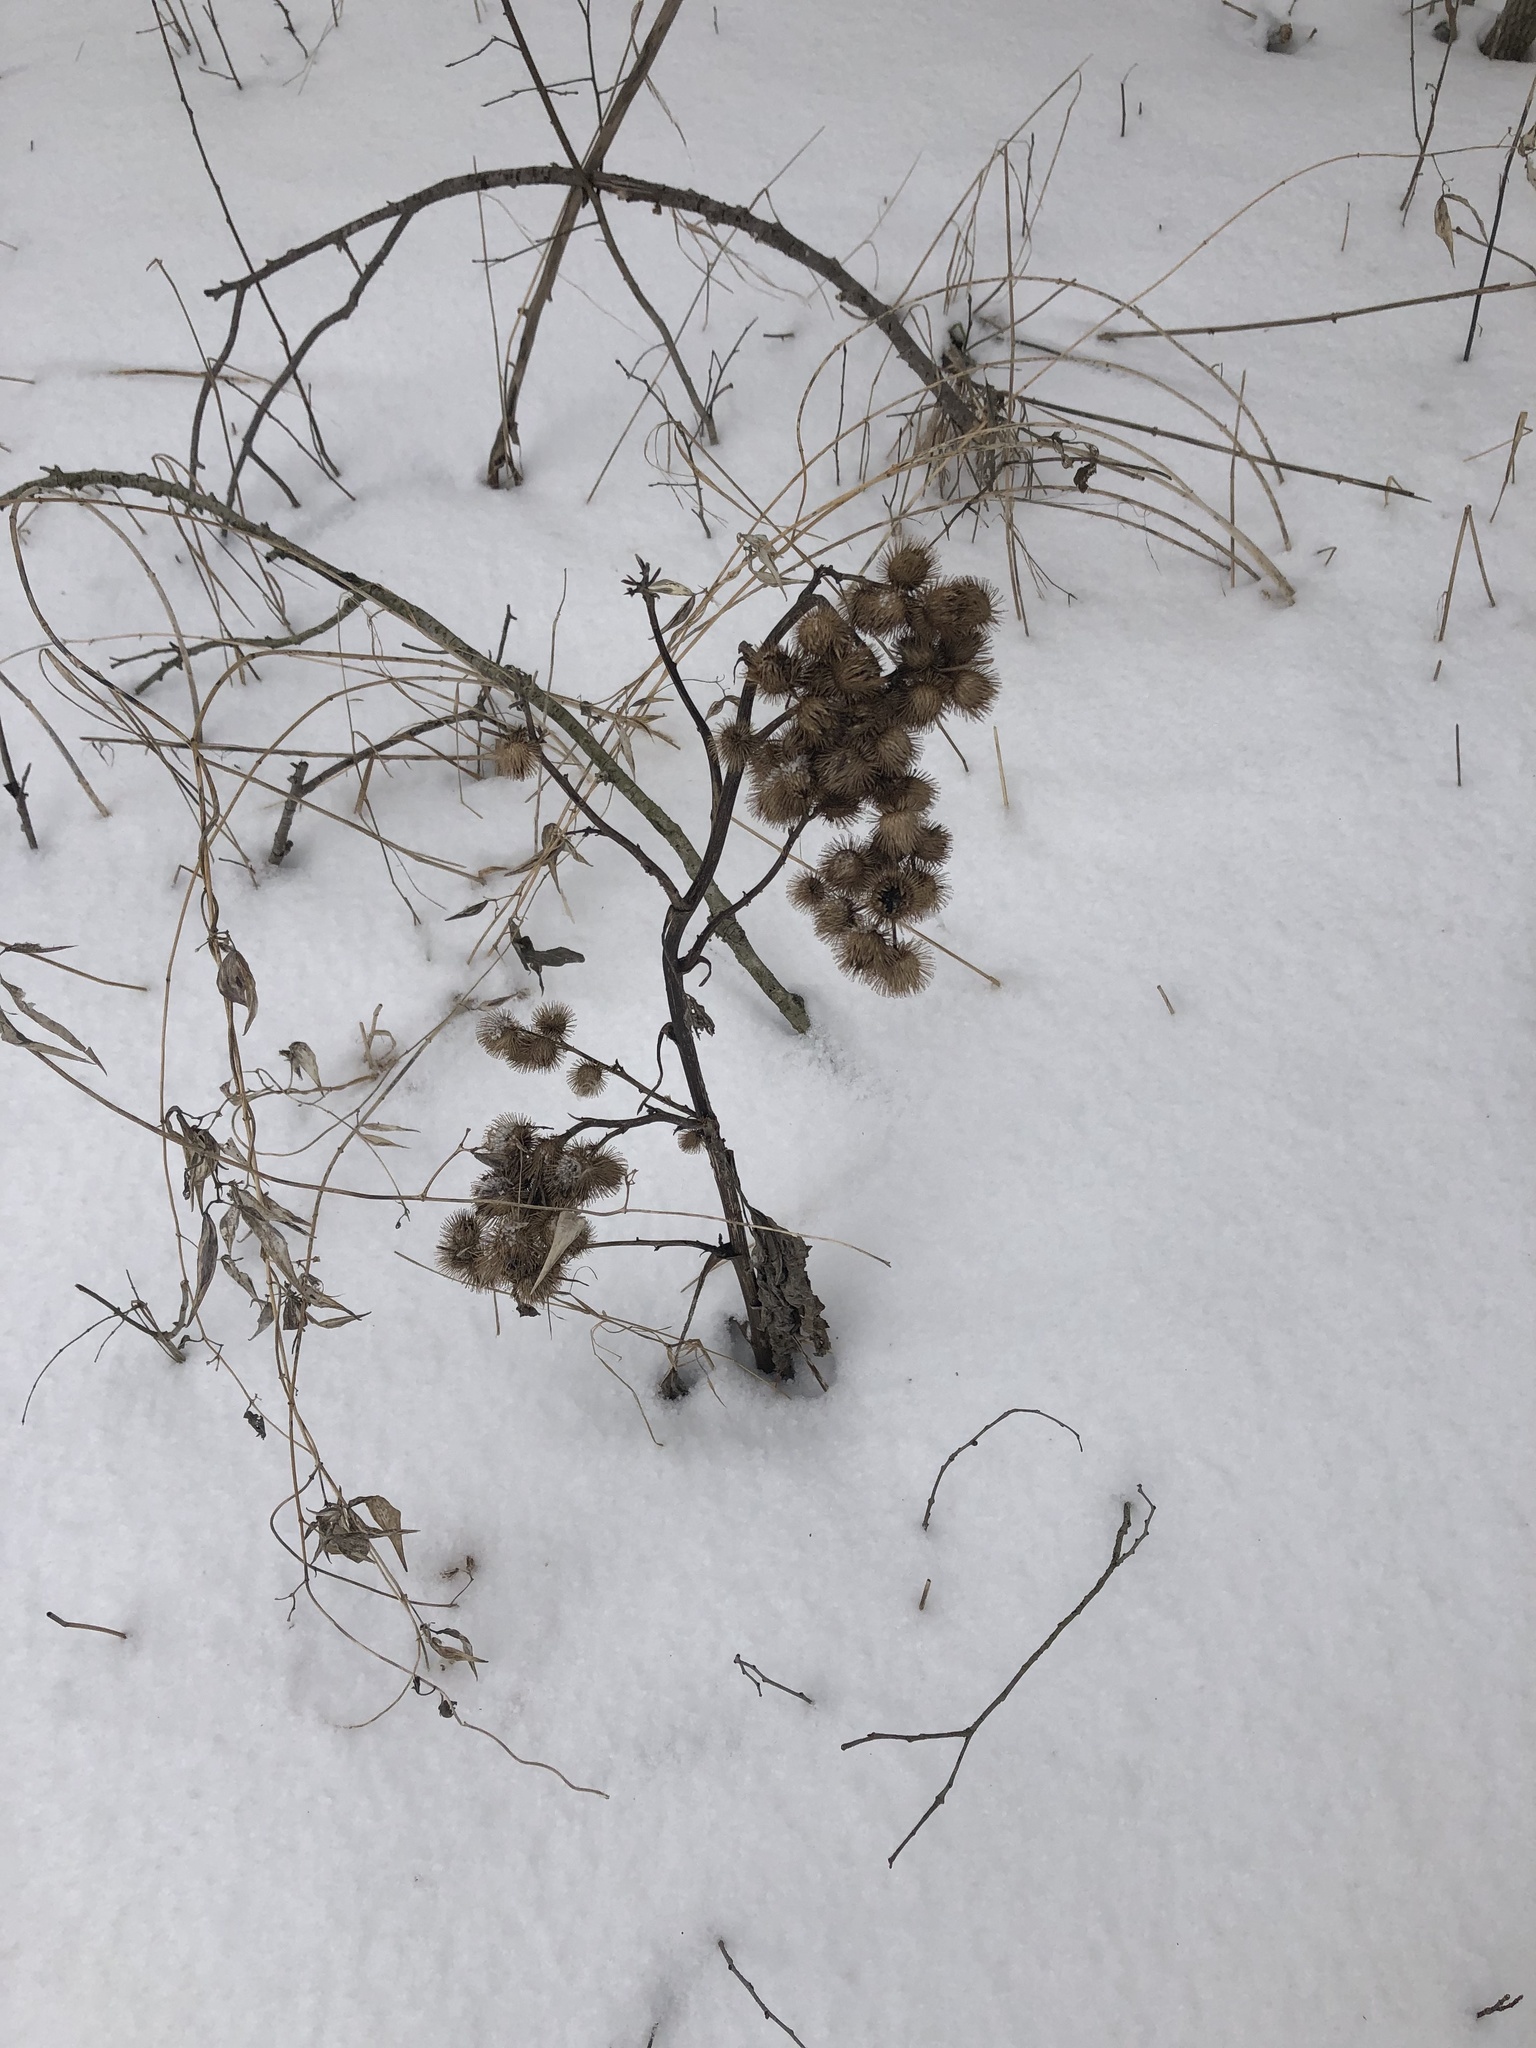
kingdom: Plantae
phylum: Tracheophyta
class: Magnoliopsida
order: Asterales
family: Asteraceae
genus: Arctium
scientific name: Arctium minus
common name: Lesser burdock
